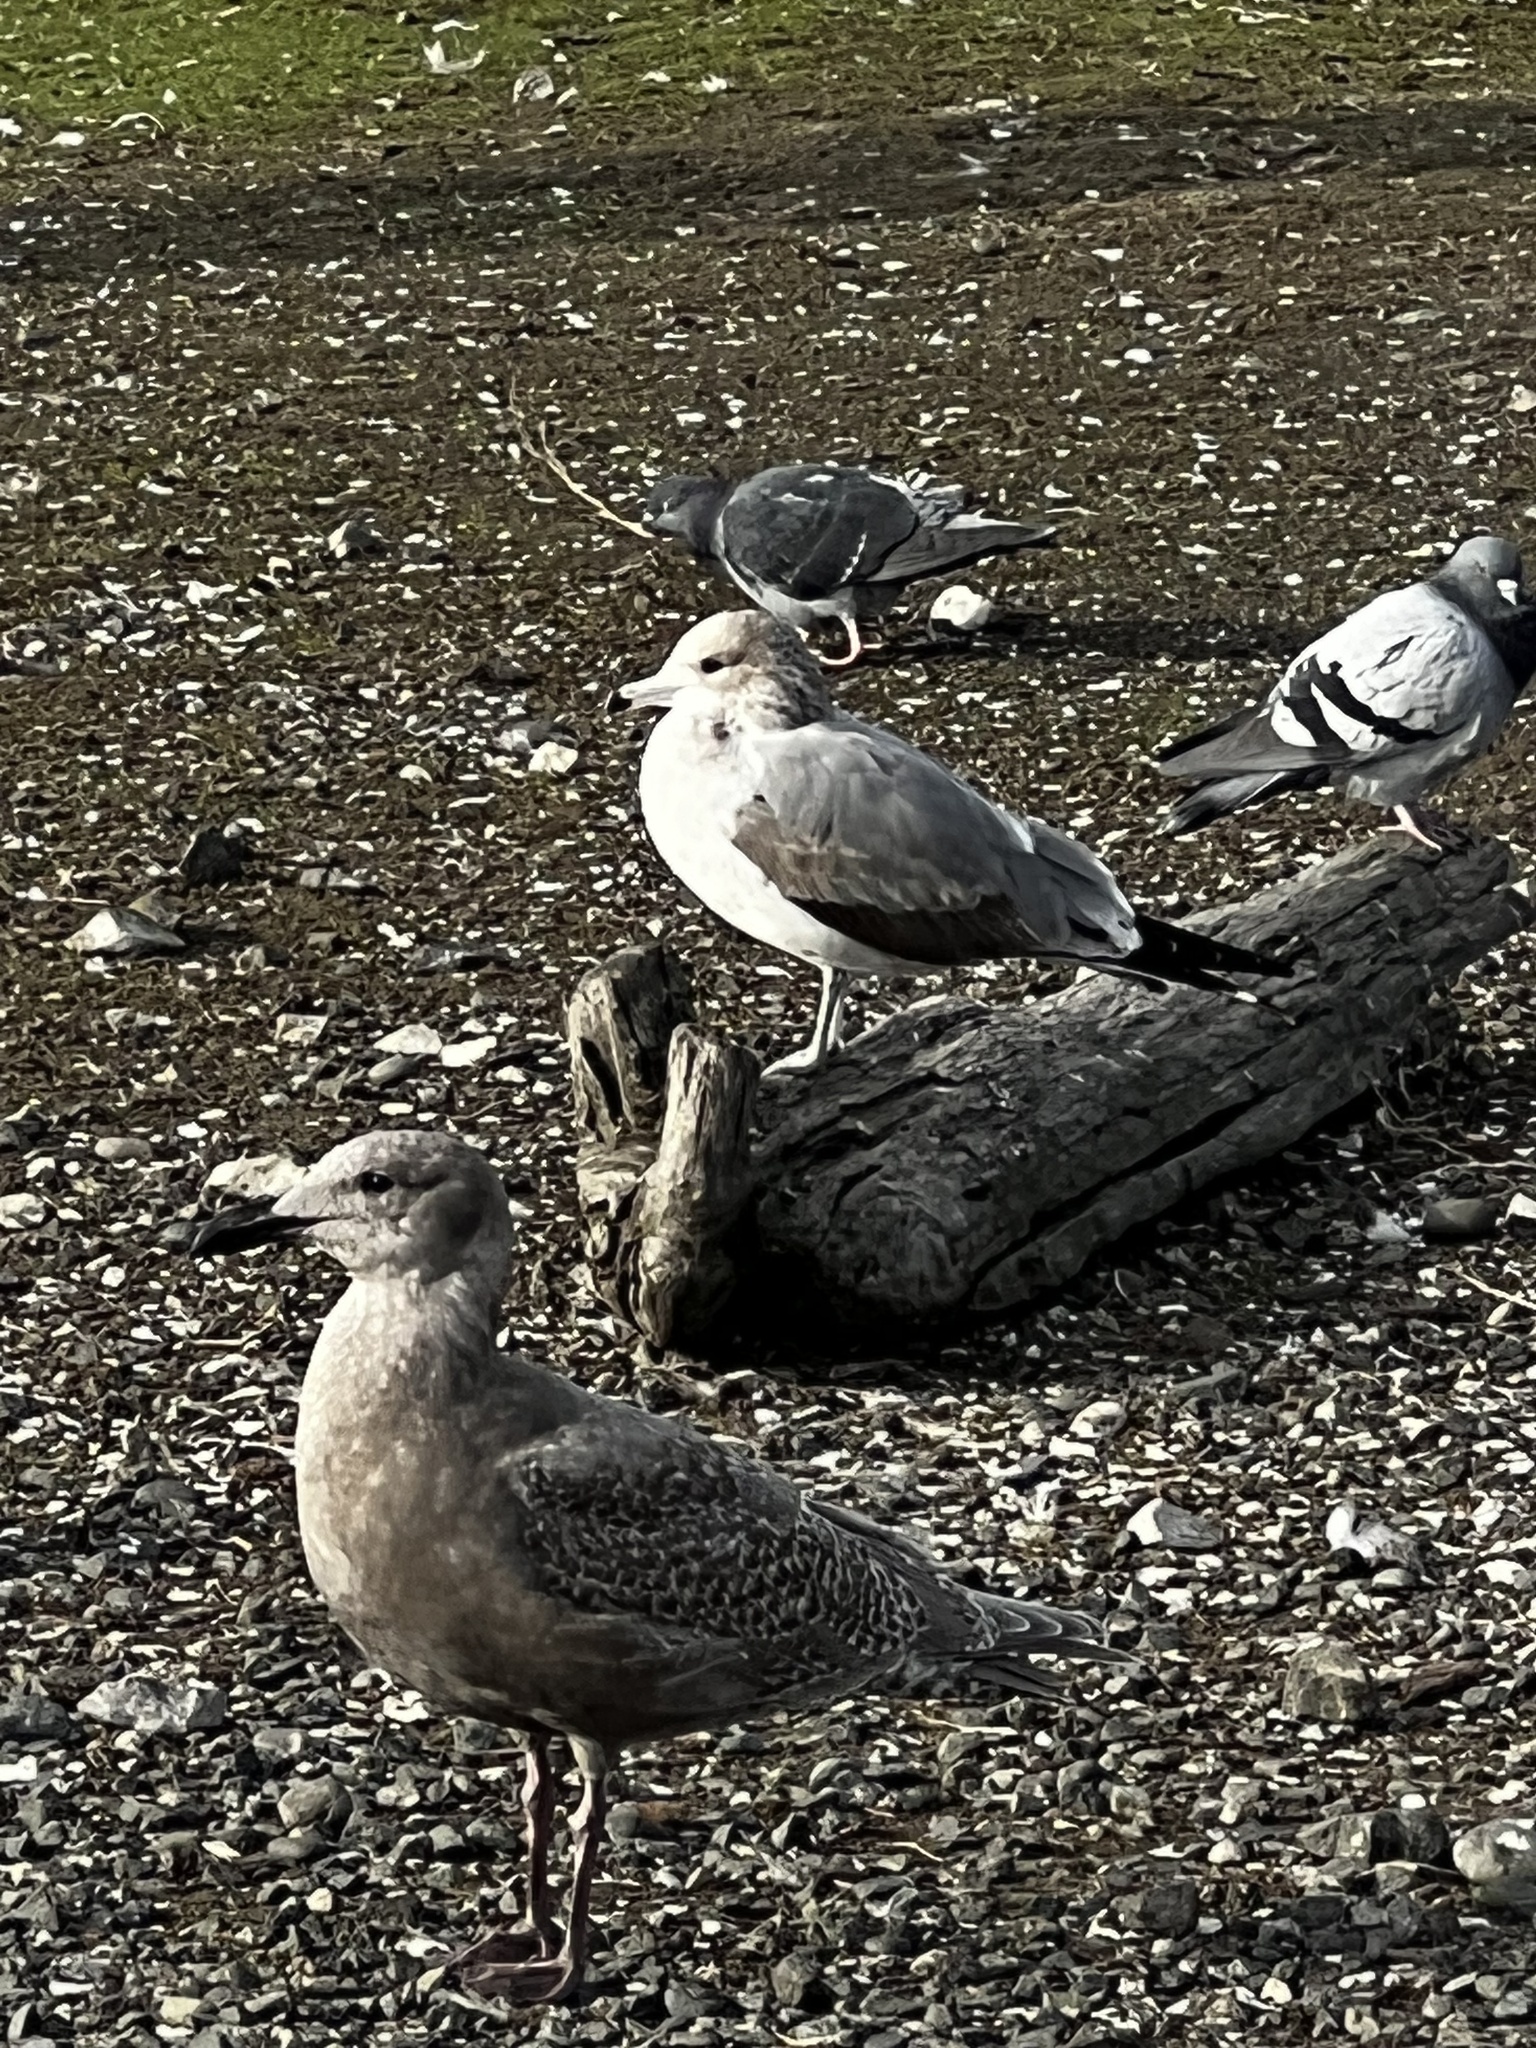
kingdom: Animalia
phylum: Chordata
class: Aves
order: Charadriiformes
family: Laridae
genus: Larus
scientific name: Larus californicus
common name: California gull
